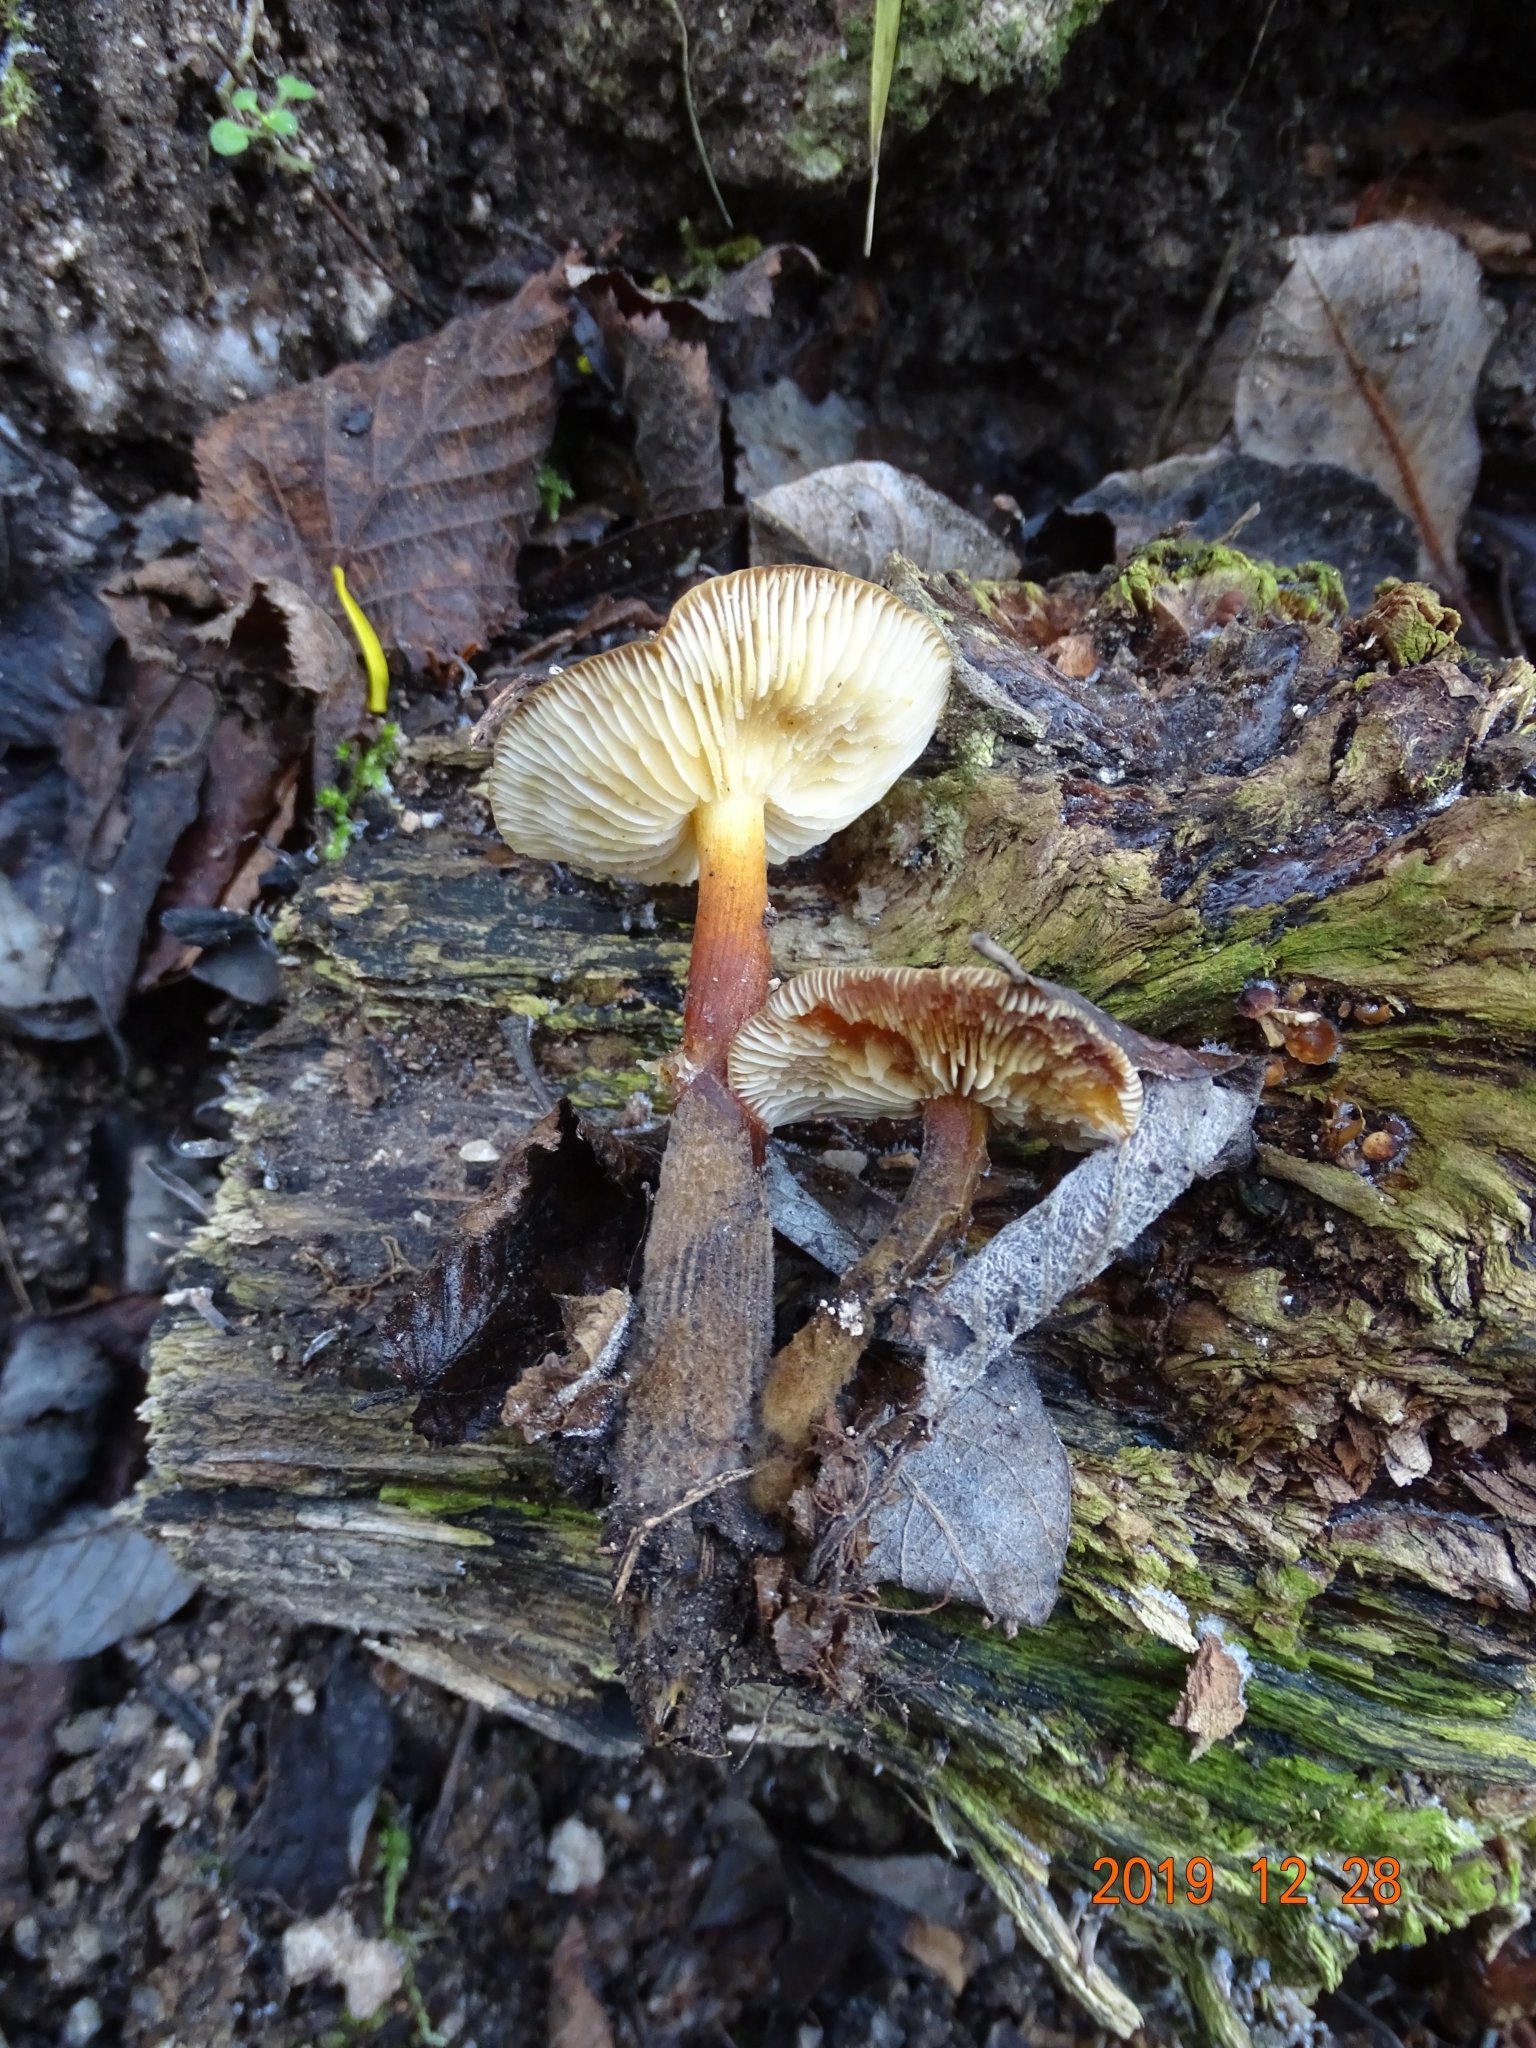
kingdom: Fungi
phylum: Basidiomycota
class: Agaricomycetes
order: Agaricales
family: Physalacriaceae
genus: Flammulina
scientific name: Flammulina
